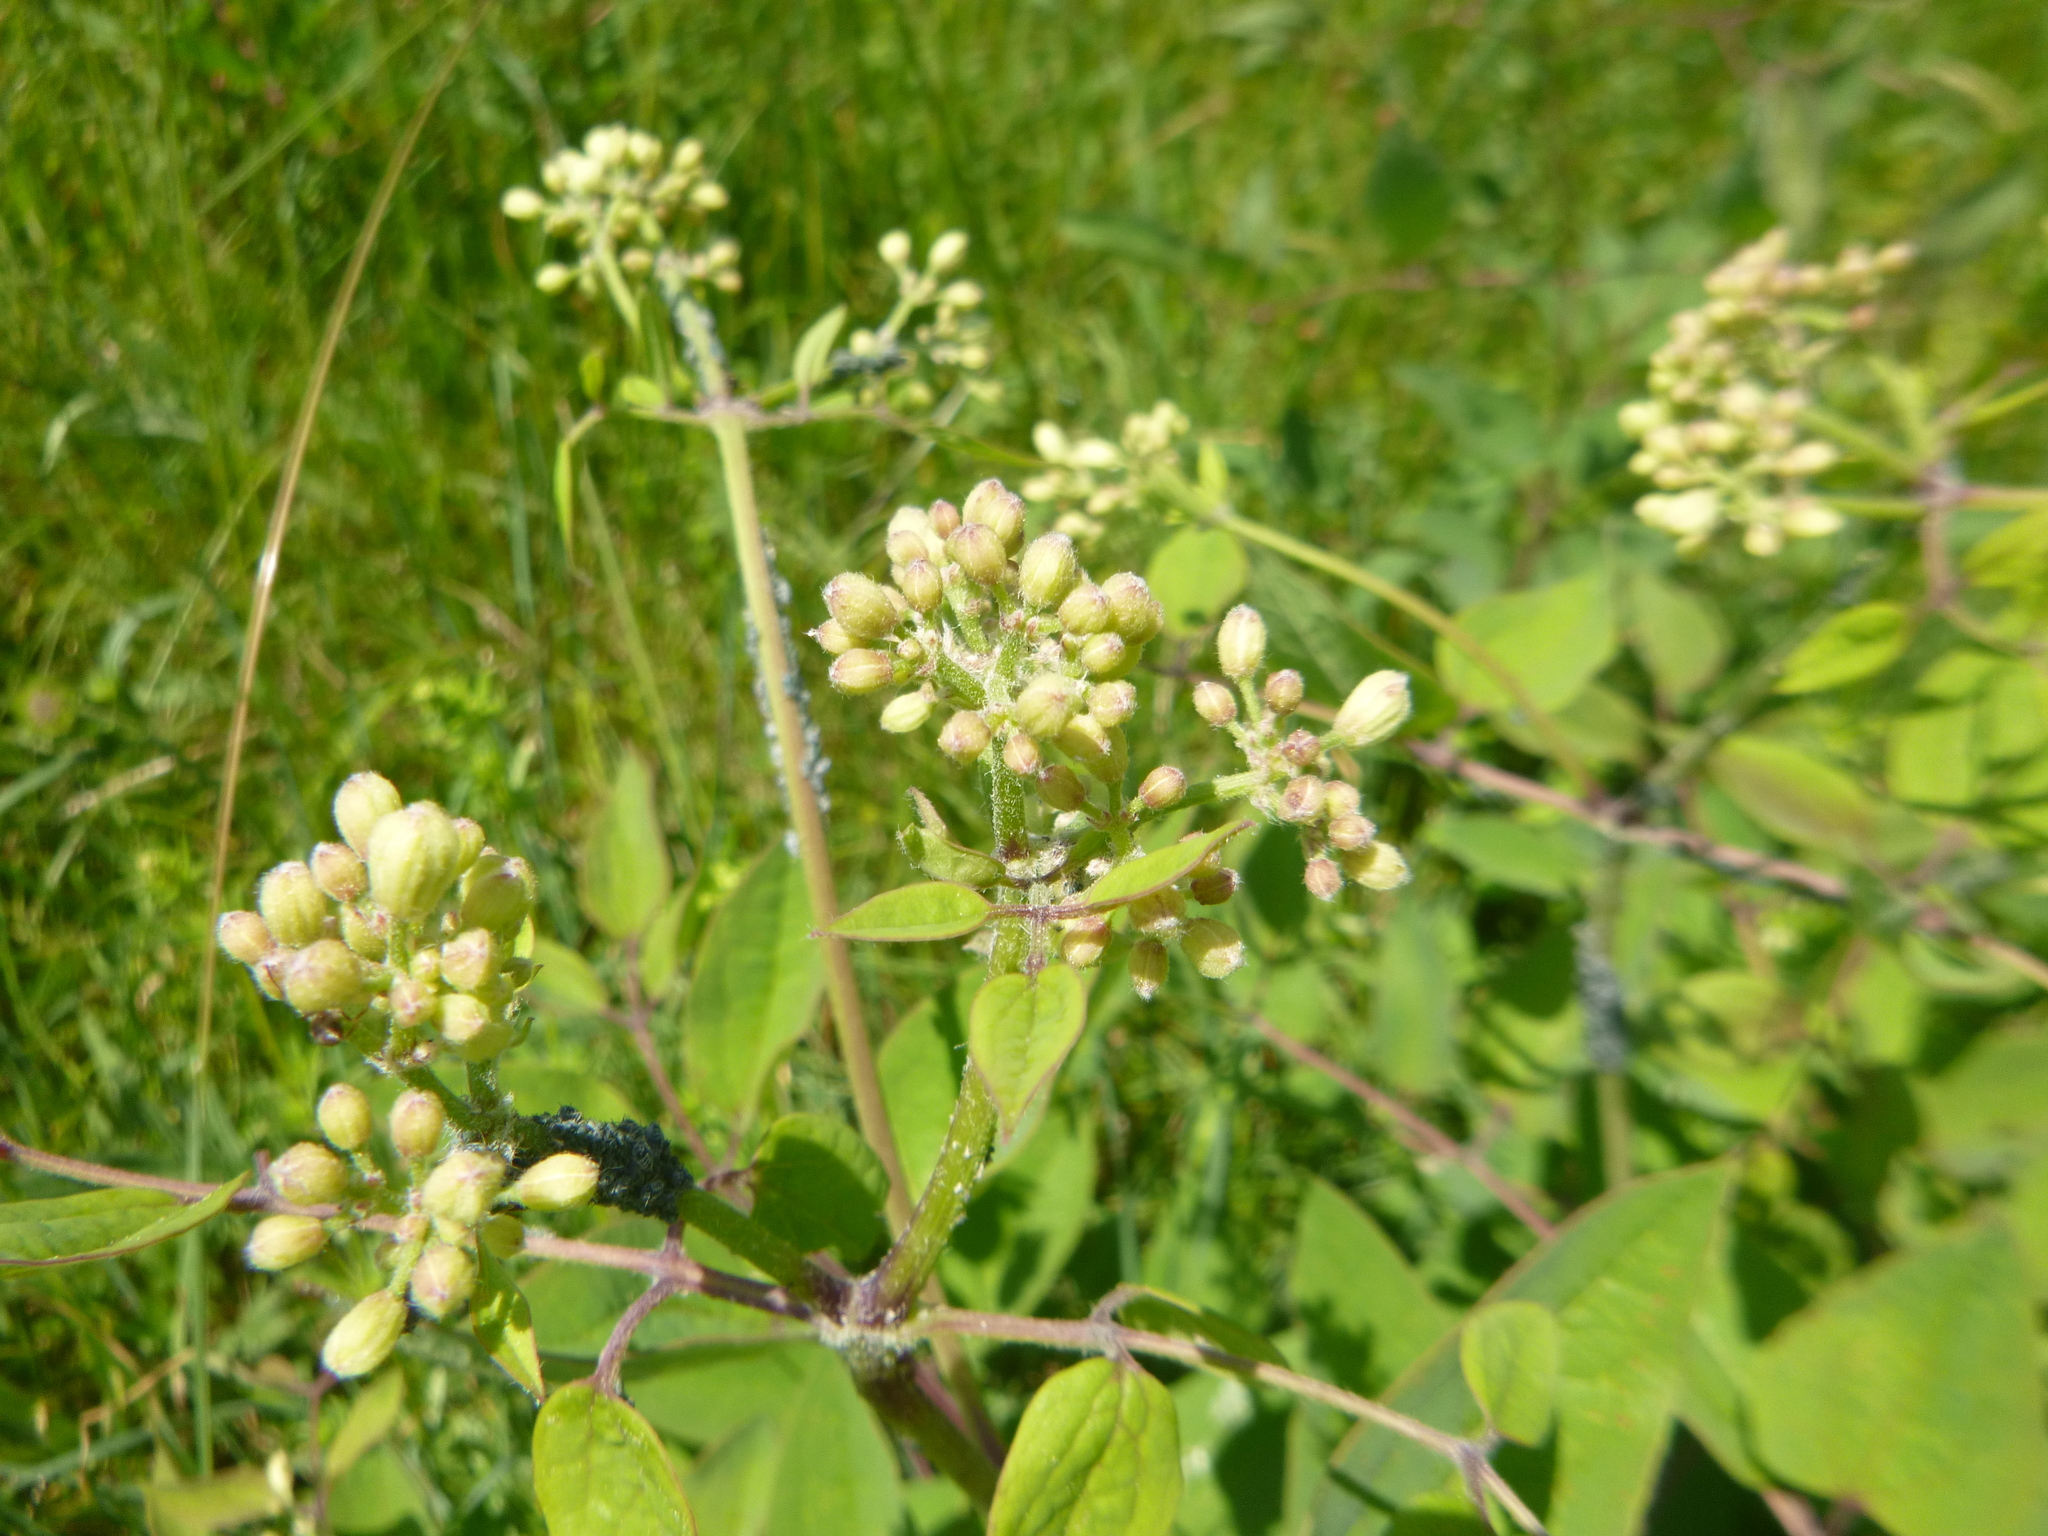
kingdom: Plantae
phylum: Tracheophyta
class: Magnoliopsida
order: Ranunculales
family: Ranunculaceae
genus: Clematis
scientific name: Clematis recta
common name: Ground clematis
